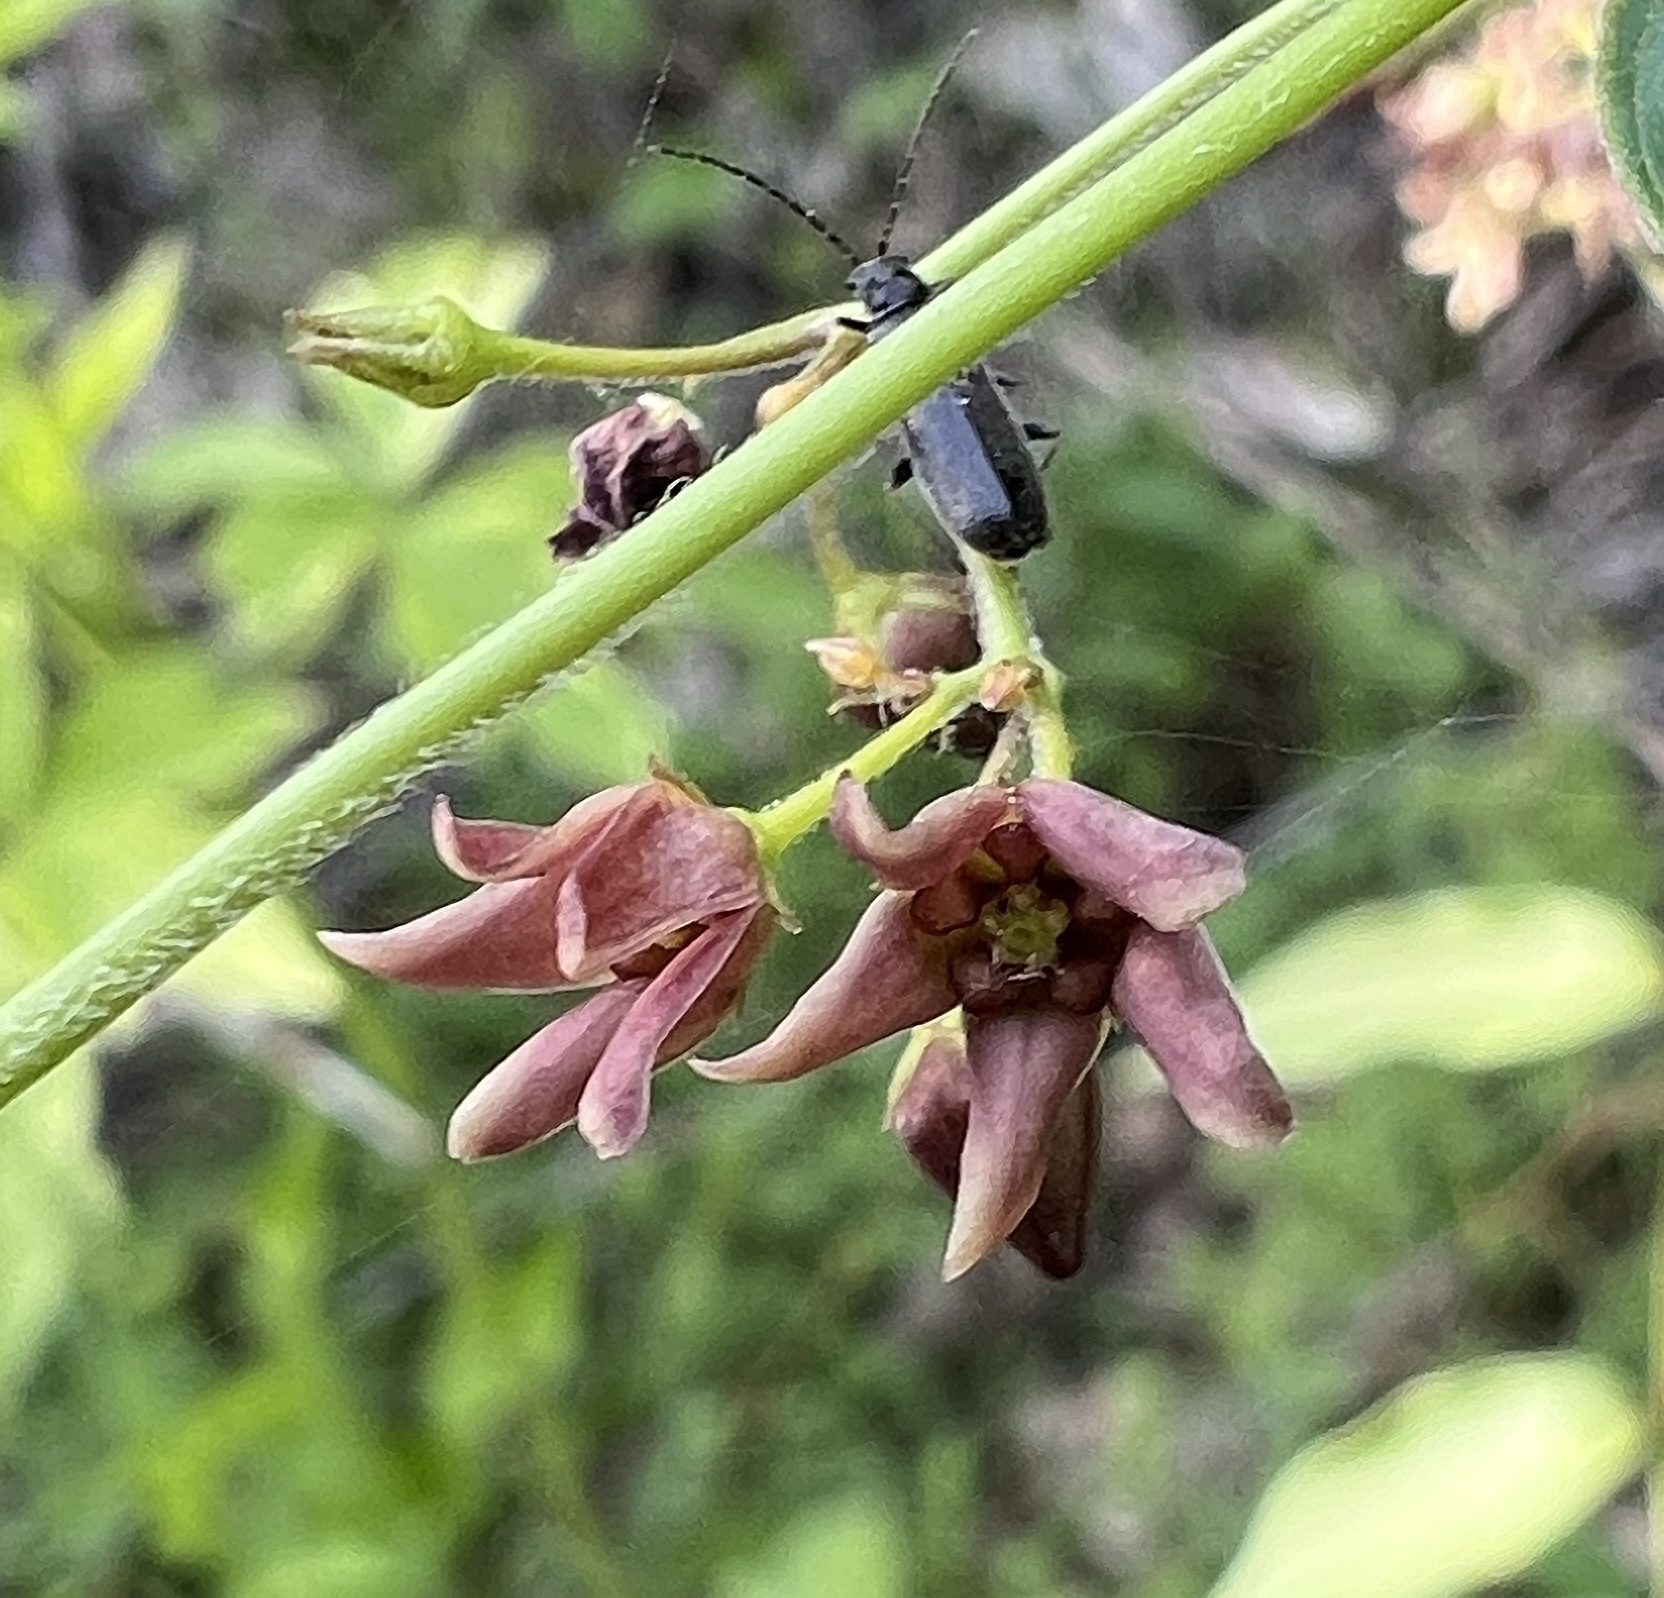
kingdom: Plantae
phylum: Tracheophyta
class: Magnoliopsida
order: Gentianales
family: Apocynaceae
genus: Vincetoxicum
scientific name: Vincetoxicum rossicum
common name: Dog-strangling vine
